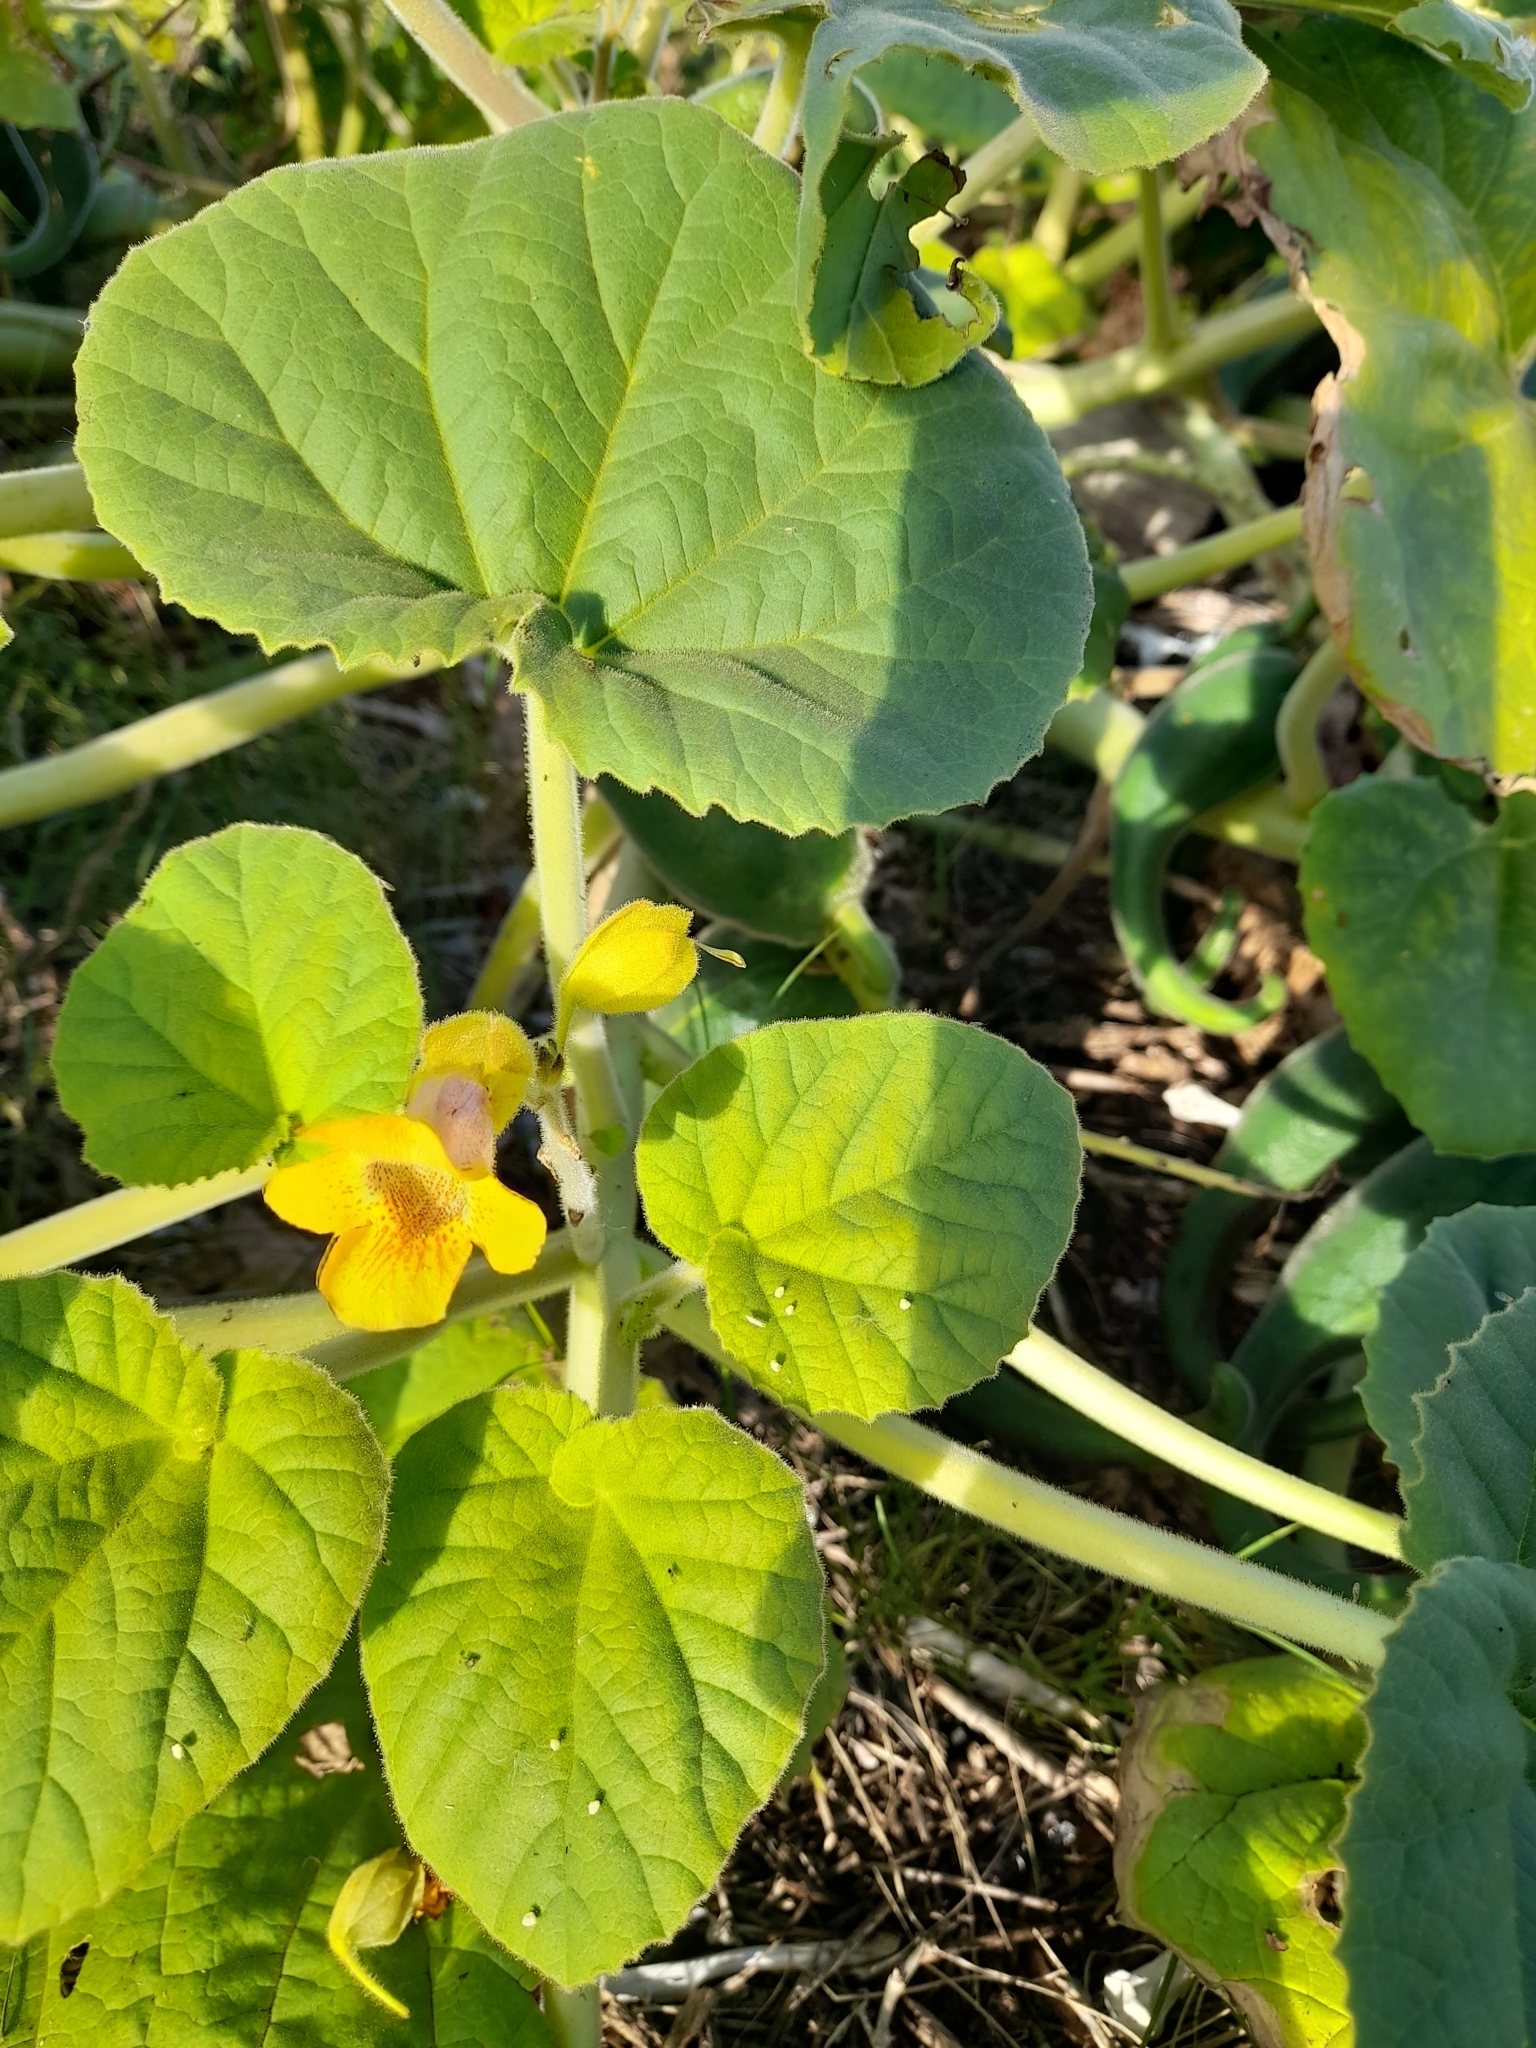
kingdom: Plantae
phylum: Tracheophyta
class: Magnoliopsida
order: Lamiales
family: Martyniaceae
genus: Ibicella
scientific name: Ibicella lutea
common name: Yellow unicorn-plant
